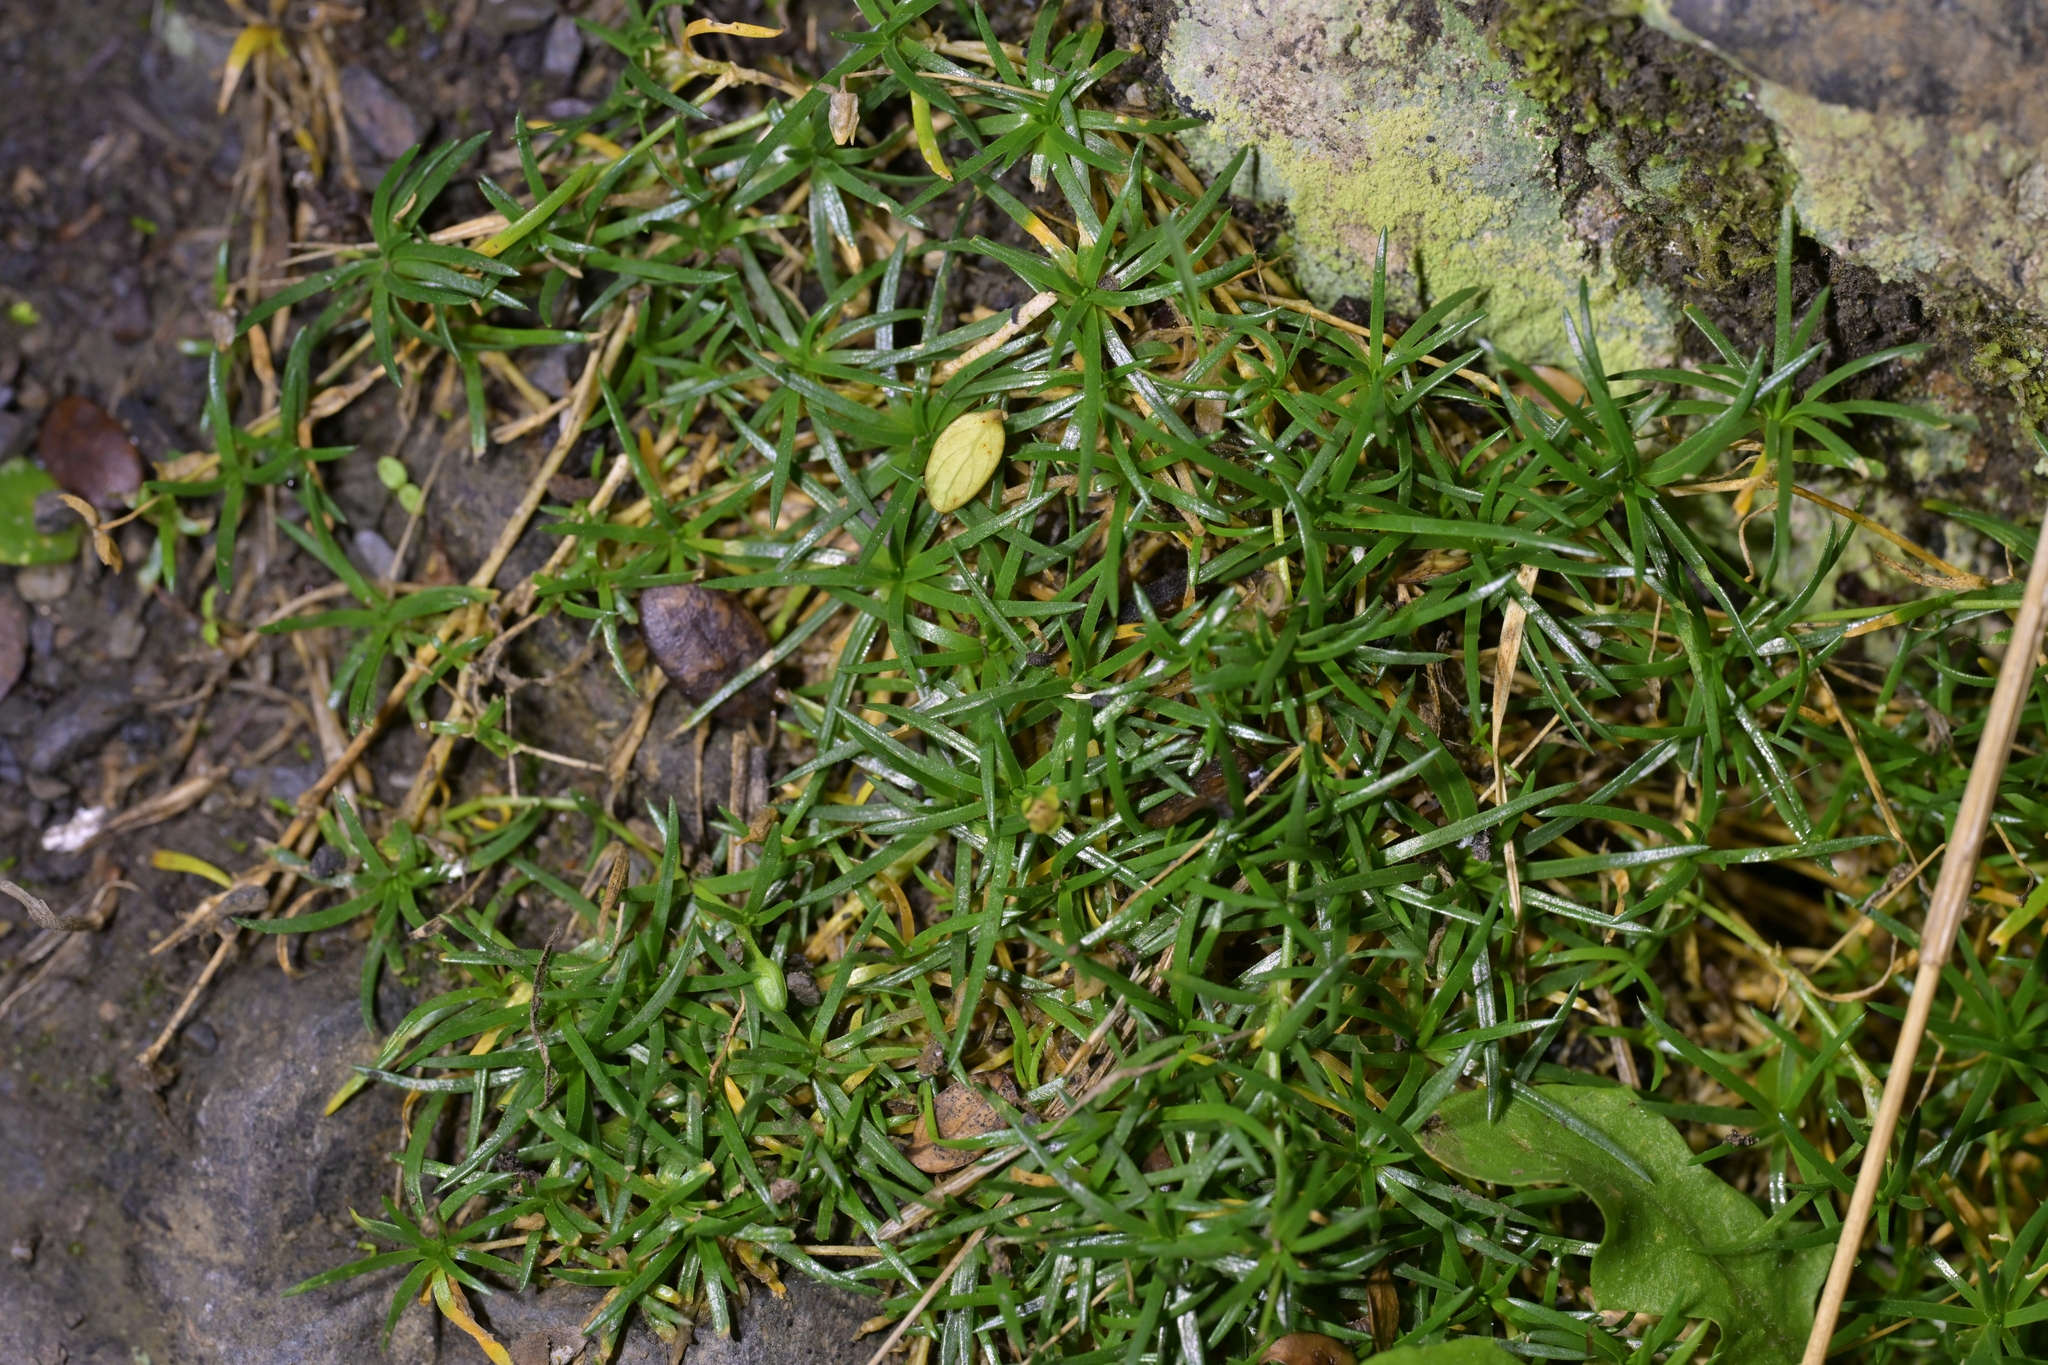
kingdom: Plantae
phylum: Tracheophyta
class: Magnoliopsida
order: Caryophyllales
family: Caryophyllaceae
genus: Sagina
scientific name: Sagina procumbens
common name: Procumbent pearlwort
